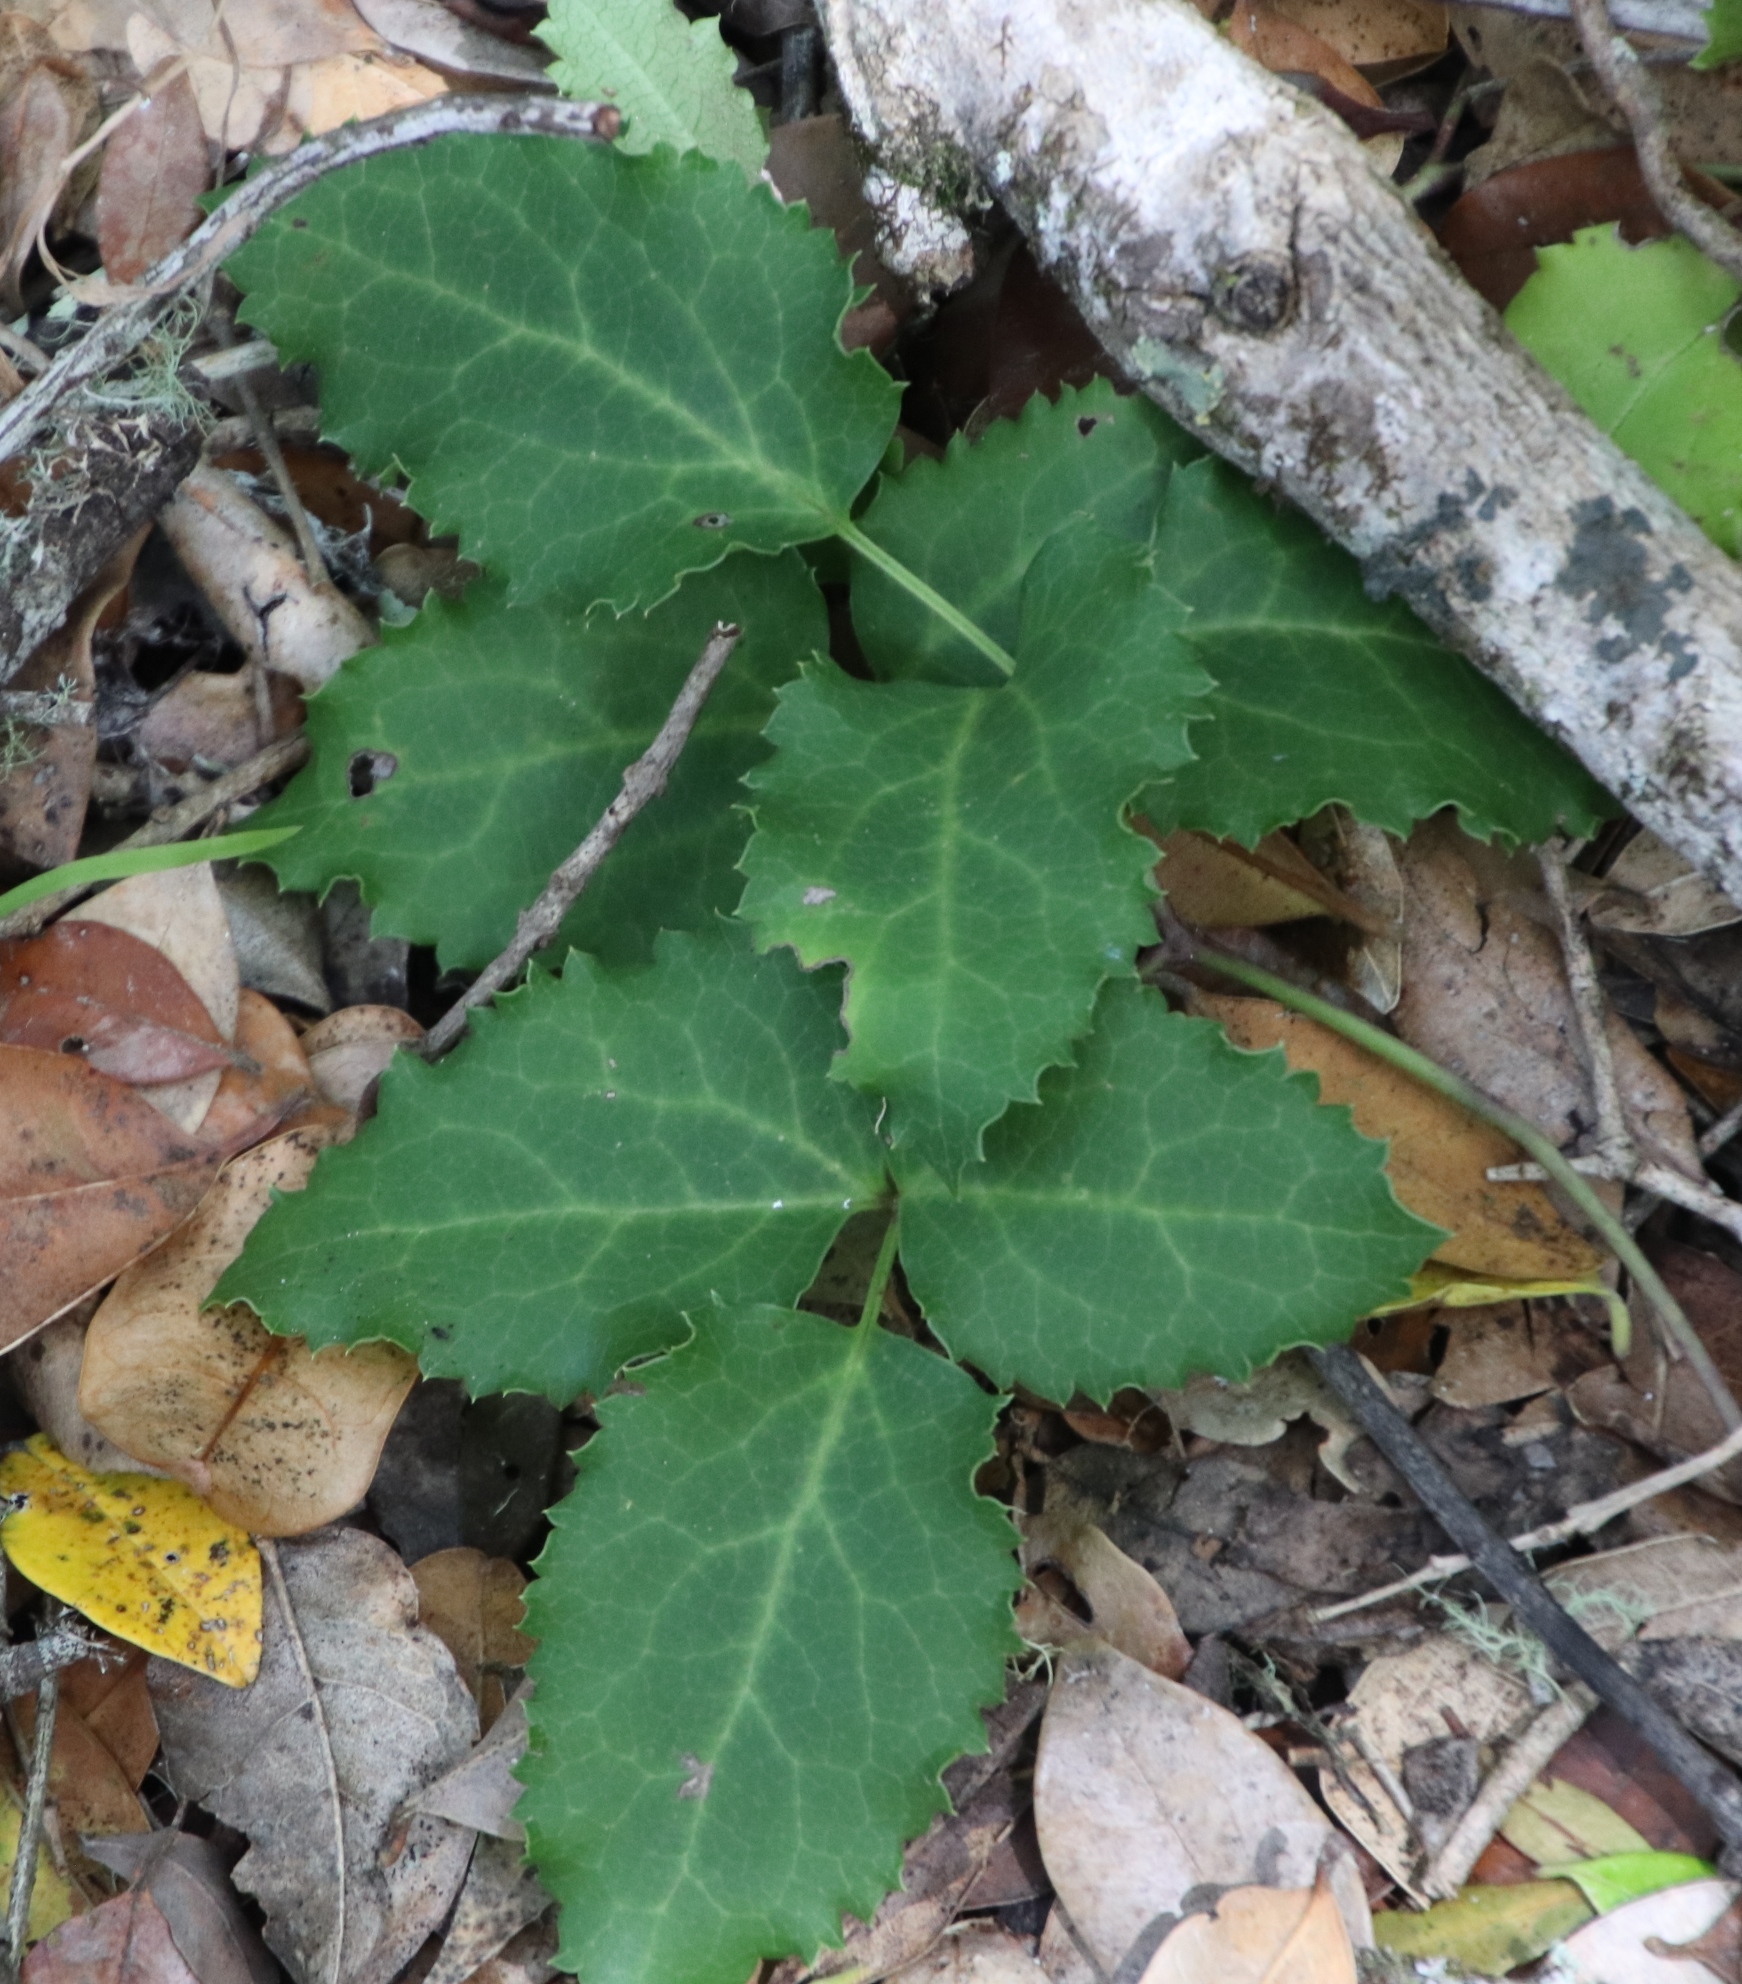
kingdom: Plantae
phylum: Tracheophyta
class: Magnoliopsida
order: Ranunculales
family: Ranunculaceae
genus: Knowltonia
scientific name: Knowltonia vesicatoria
